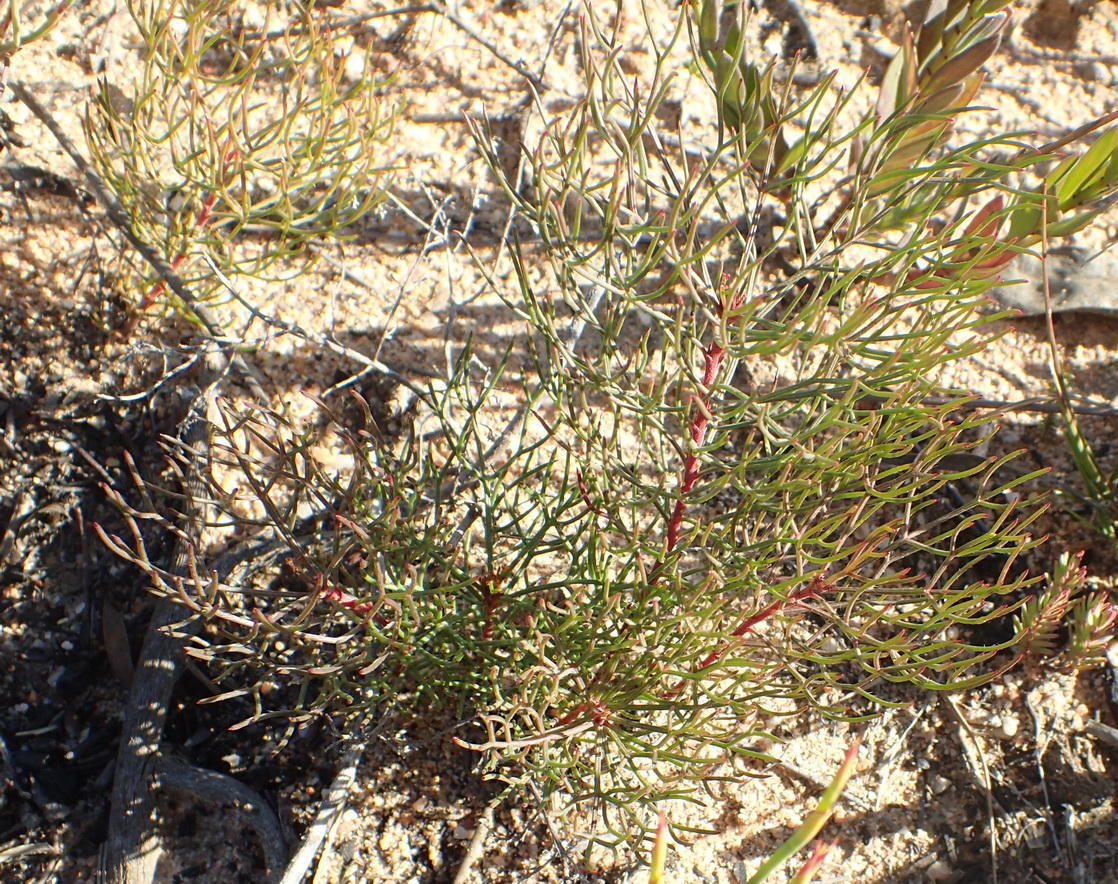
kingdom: Plantae
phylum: Tracheophyta
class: Magnoliopsida
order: Proteales
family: Proteaceae
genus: Serruria
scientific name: Serruria fasciflora
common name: Common pin spiderhead
